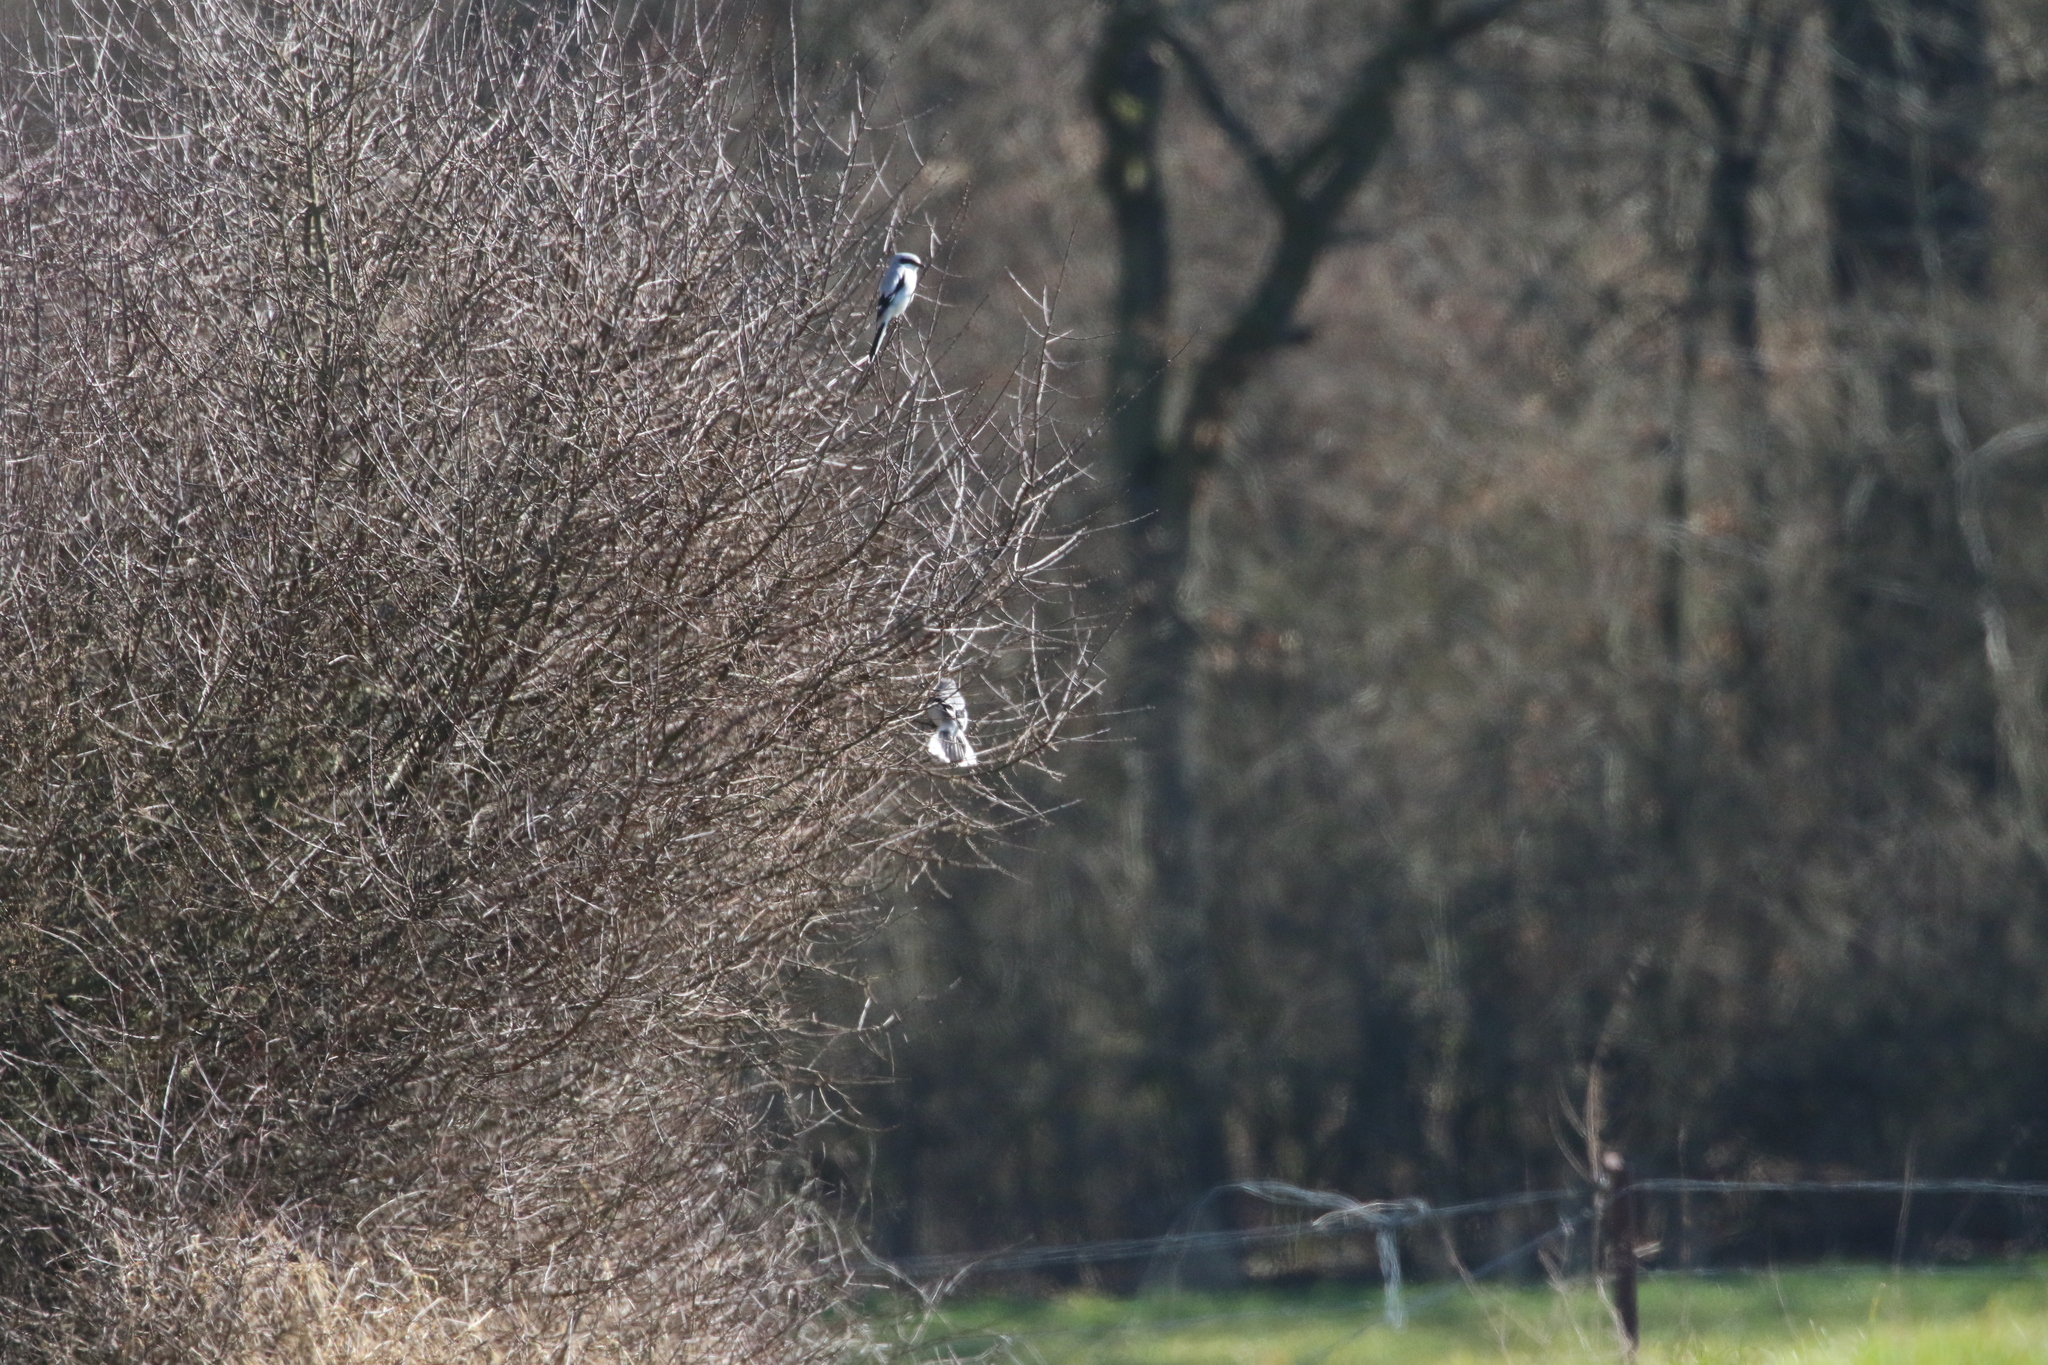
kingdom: Animalia
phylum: Chordata
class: Aves
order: Passeriformes
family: Laniidae
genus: Lanius
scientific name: Lanius excubitor
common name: Great grey shrike
